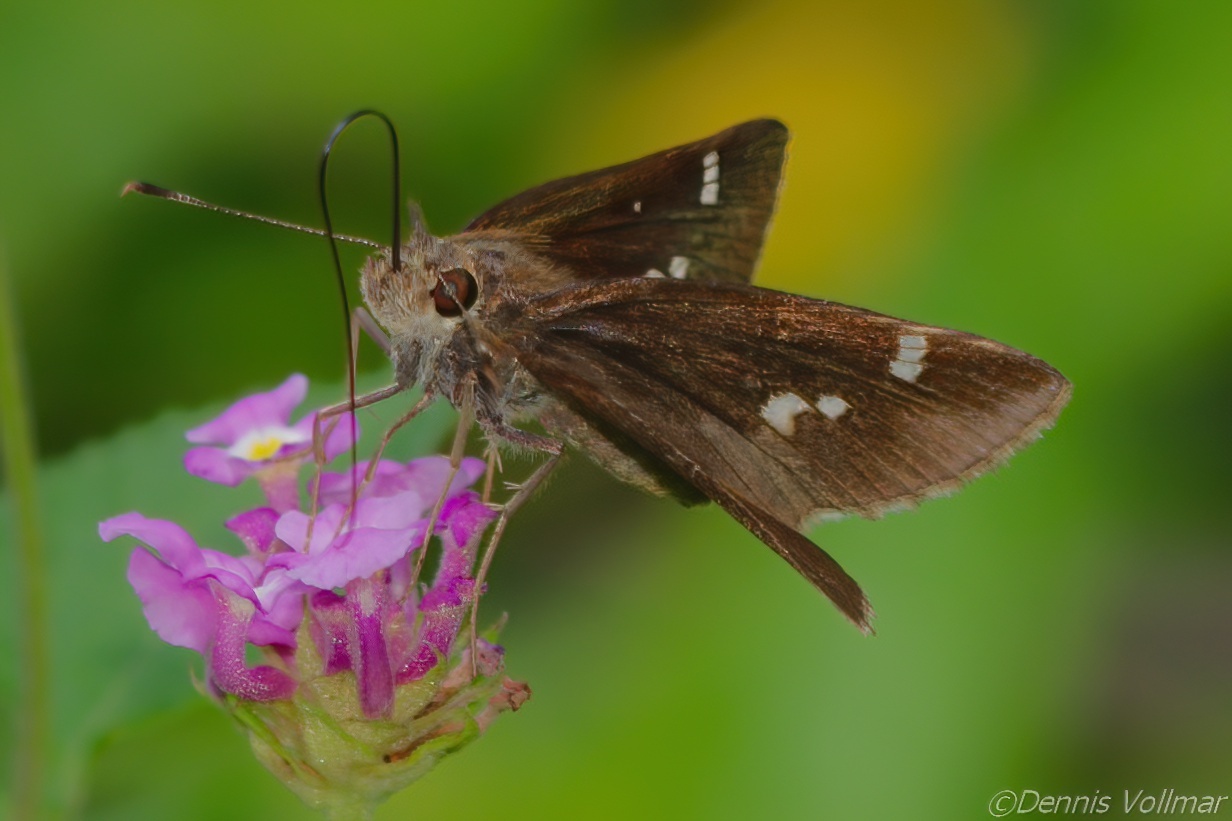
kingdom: Animalia
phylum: Arthropoda
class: Insecta
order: Lepidoptera
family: Hesperiidae
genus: Lerema
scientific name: Lerema accius
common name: Clouded skipper
